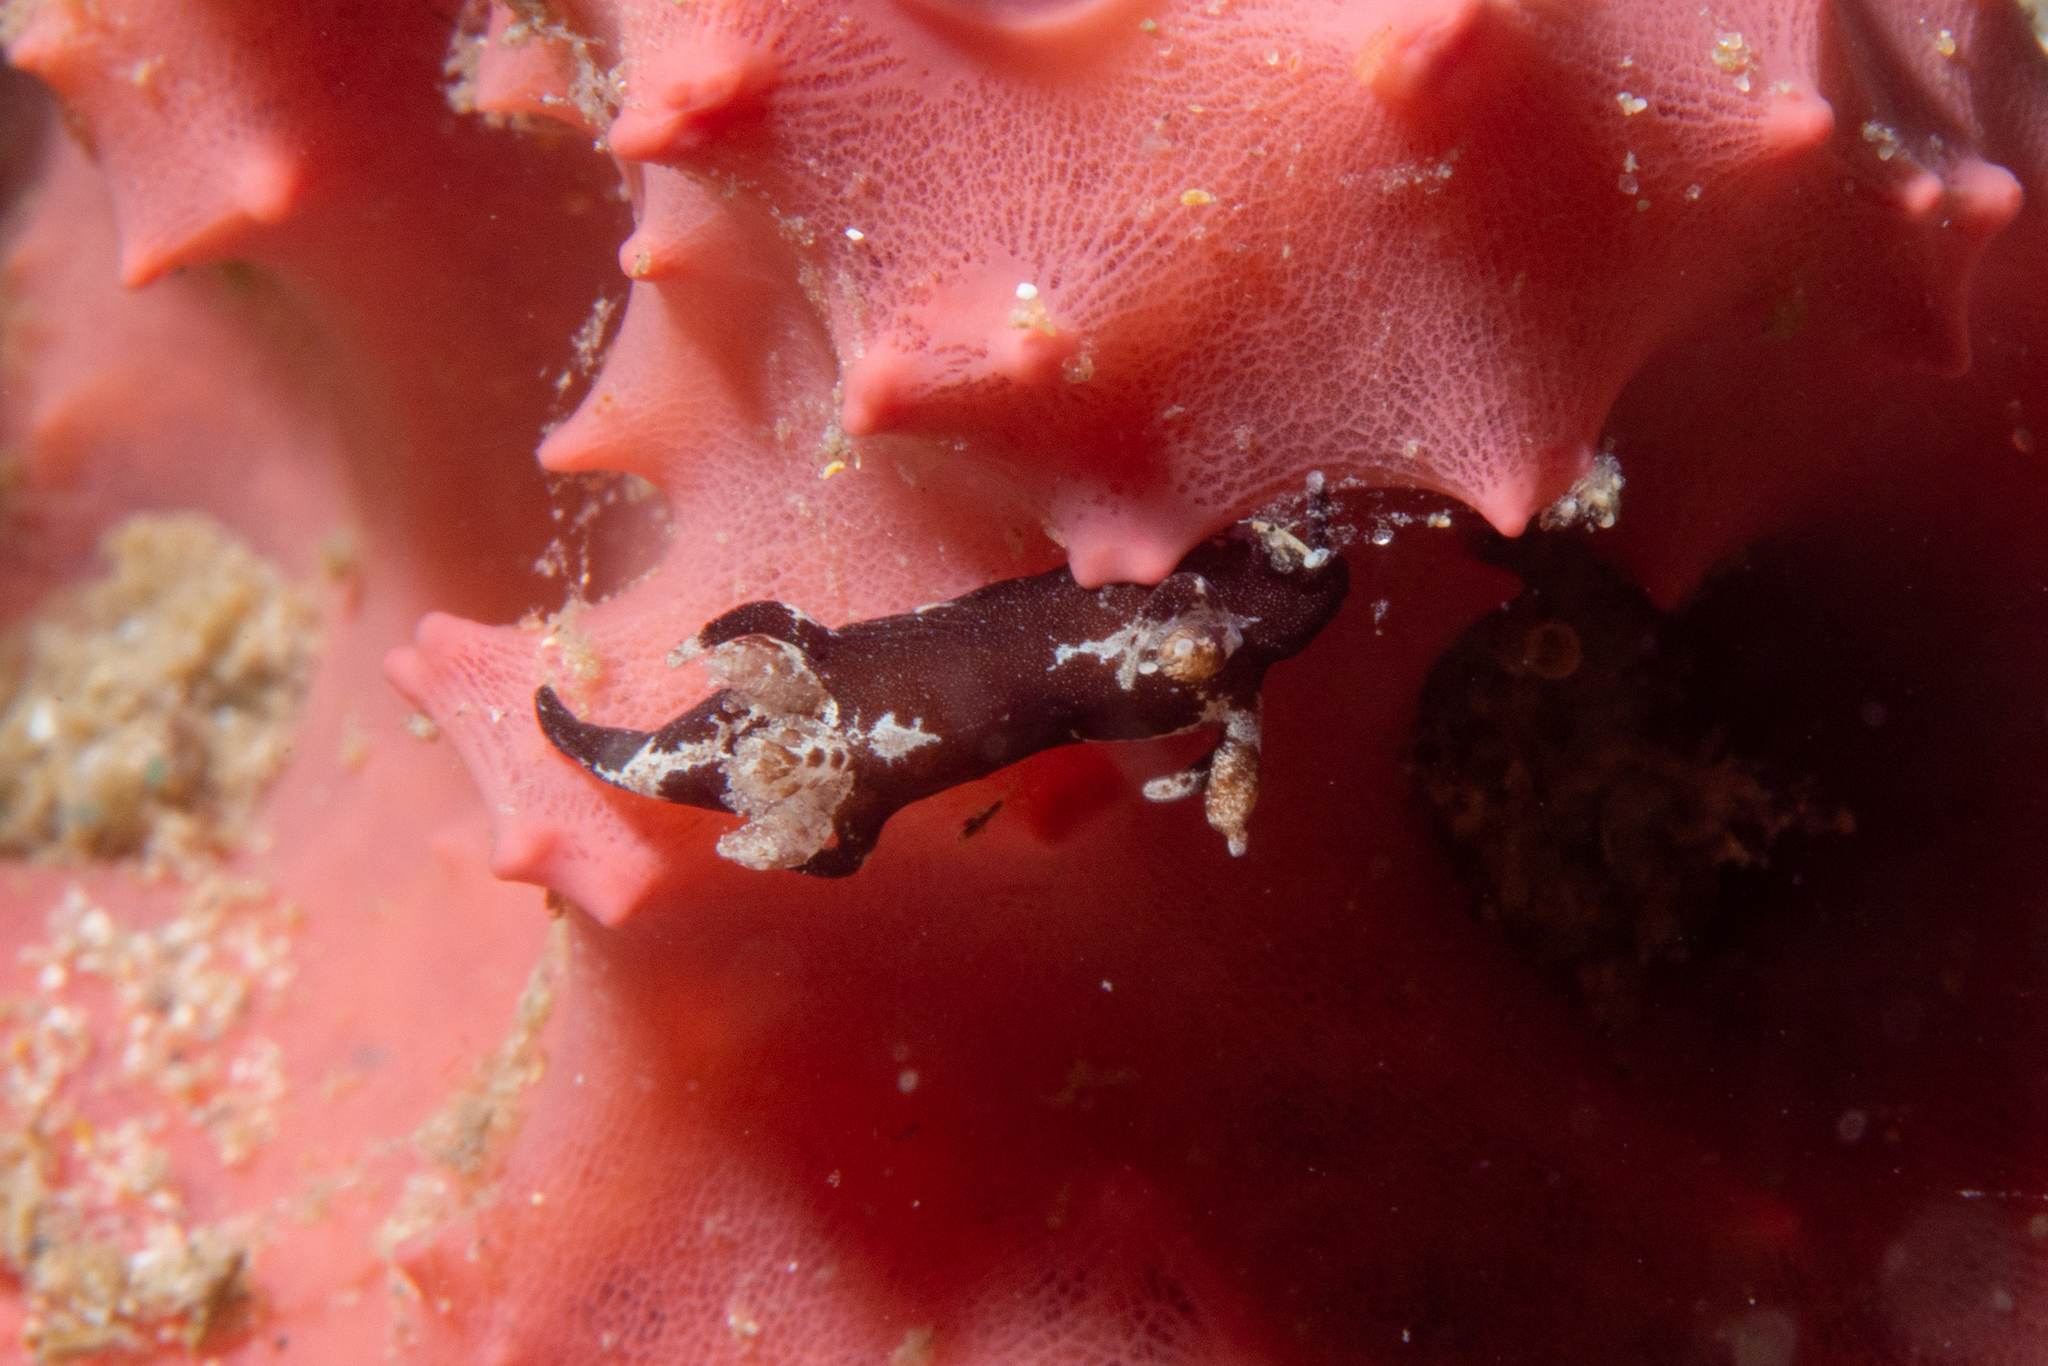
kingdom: Animalia
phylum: Mollusca
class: Gastropoda
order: Nudibranchia
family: Goniodorididae
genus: Trapania
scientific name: Trapania brunnea
